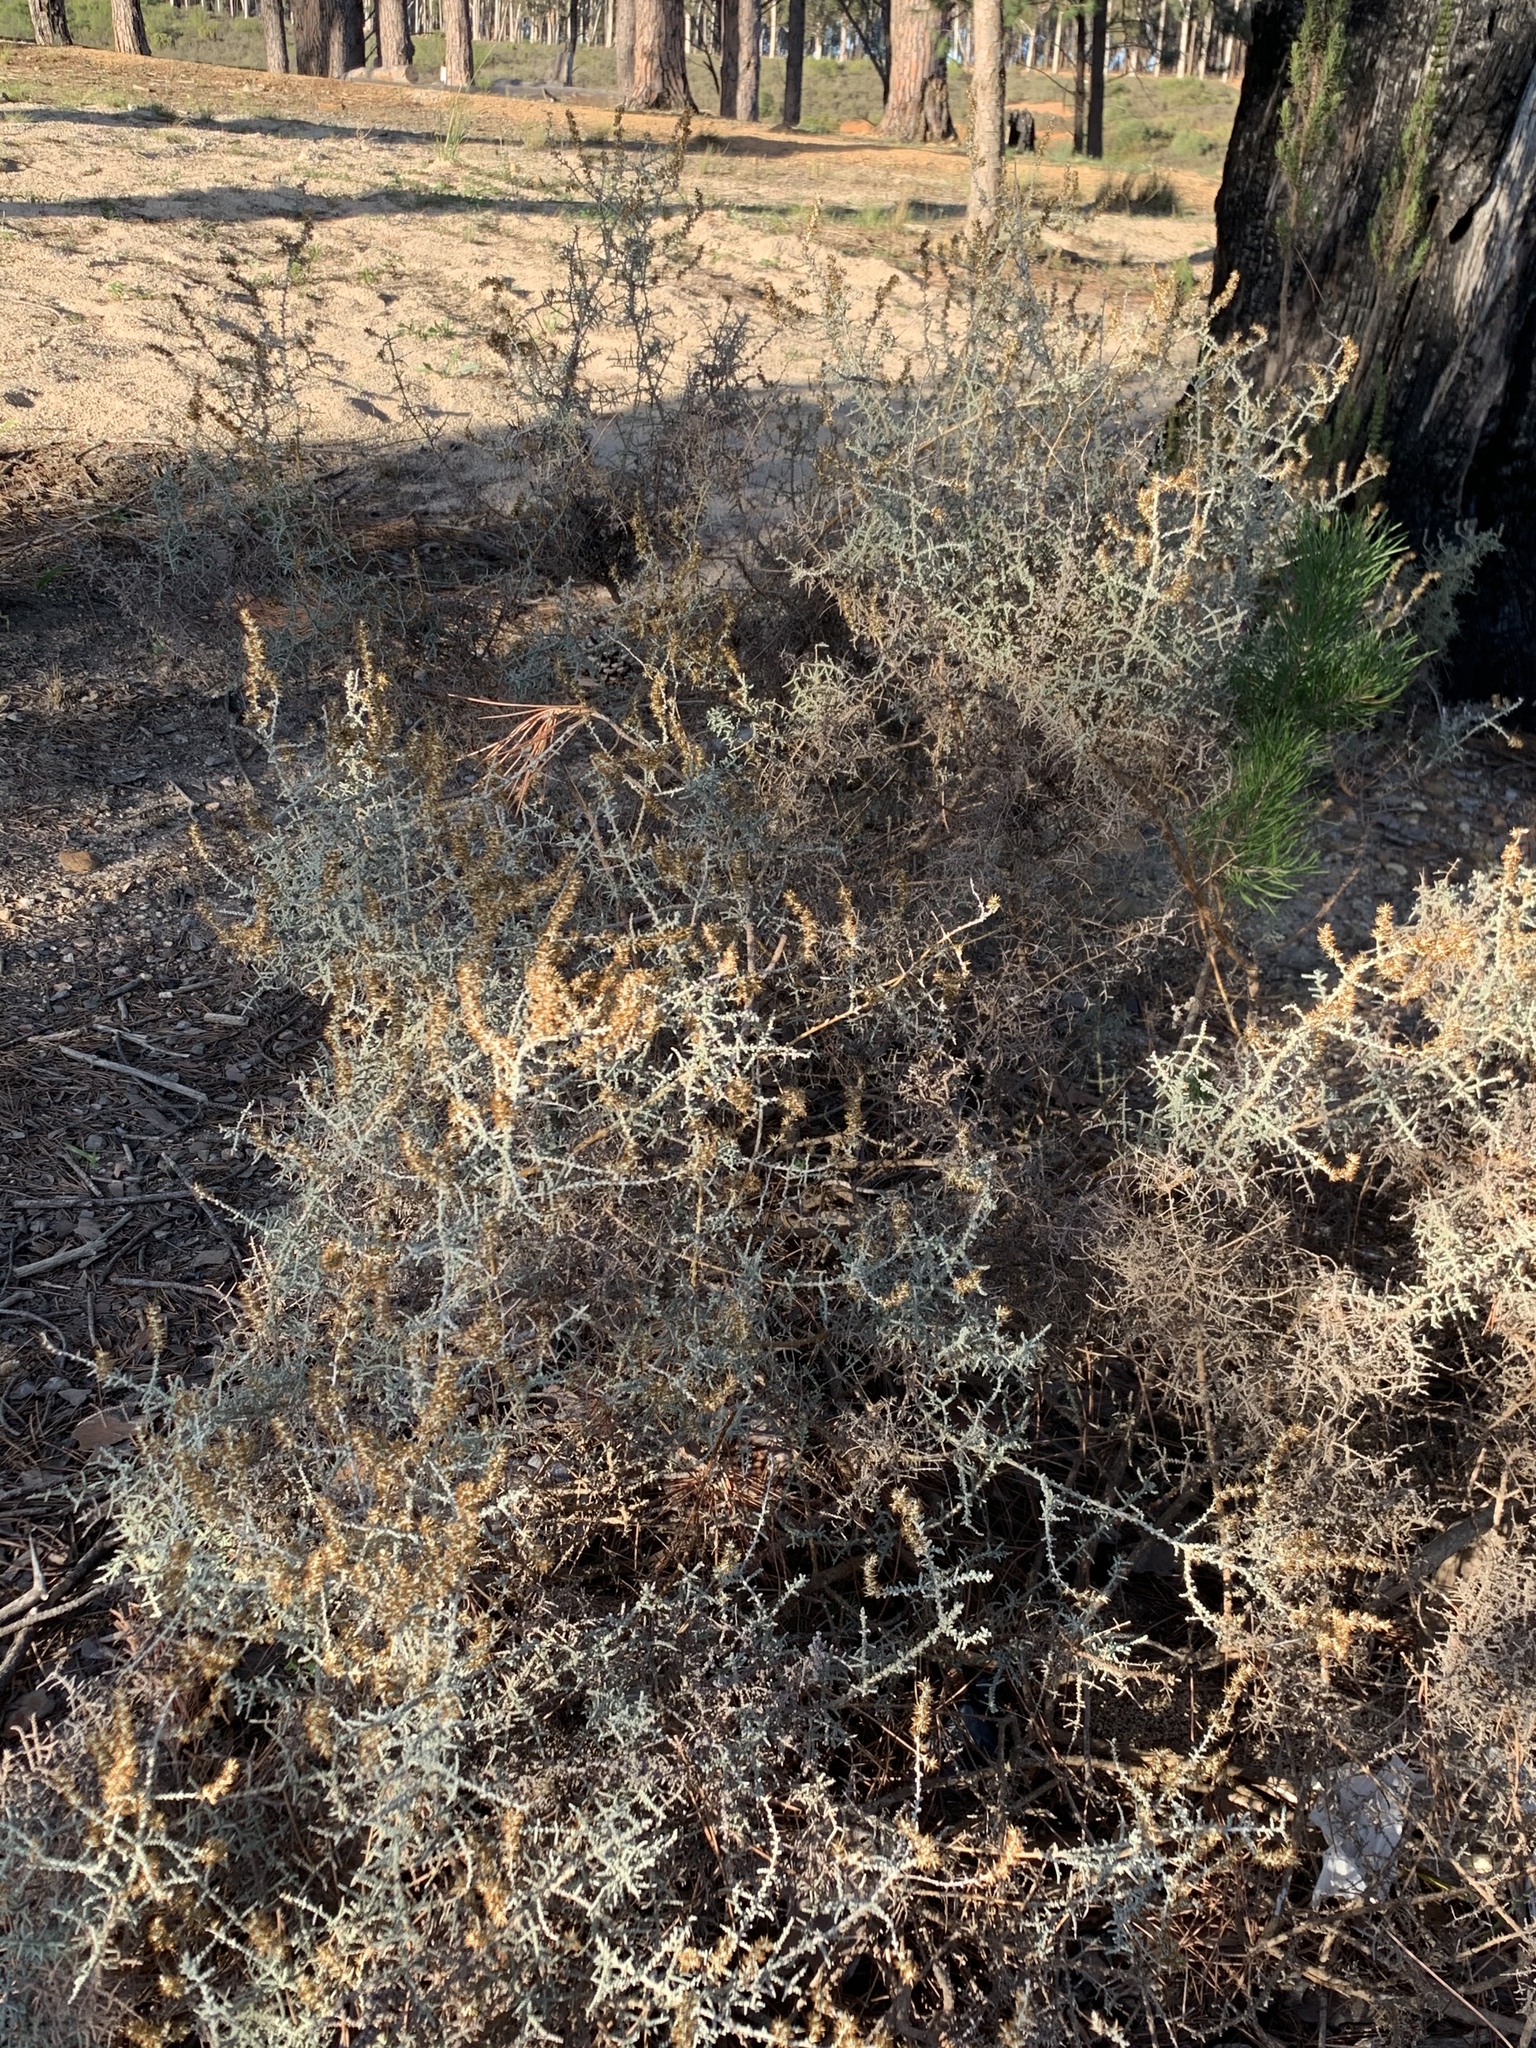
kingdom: Plantae
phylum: Tracheophyta
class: Magnoliopsida
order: Asterales
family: Asteraceae
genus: Seriphium
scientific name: Seriphium plumosum
